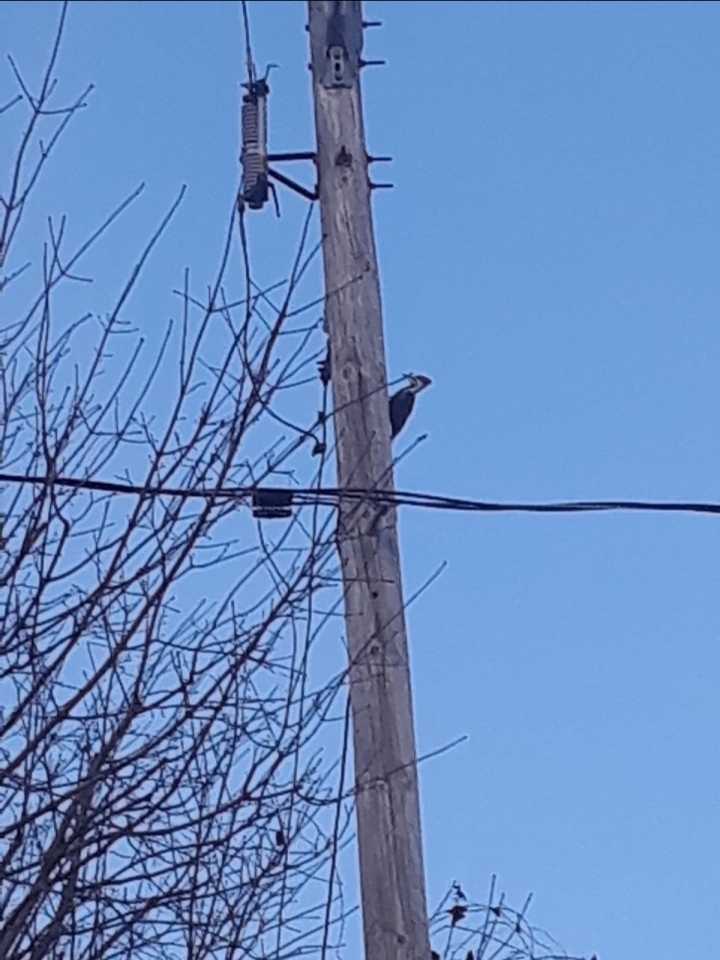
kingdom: Animalia
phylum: Chordata
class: Aves
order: Piciformes
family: Picidae
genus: Dryocopus
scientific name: Dryocopus pileatus
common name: Pileated woodpecker
